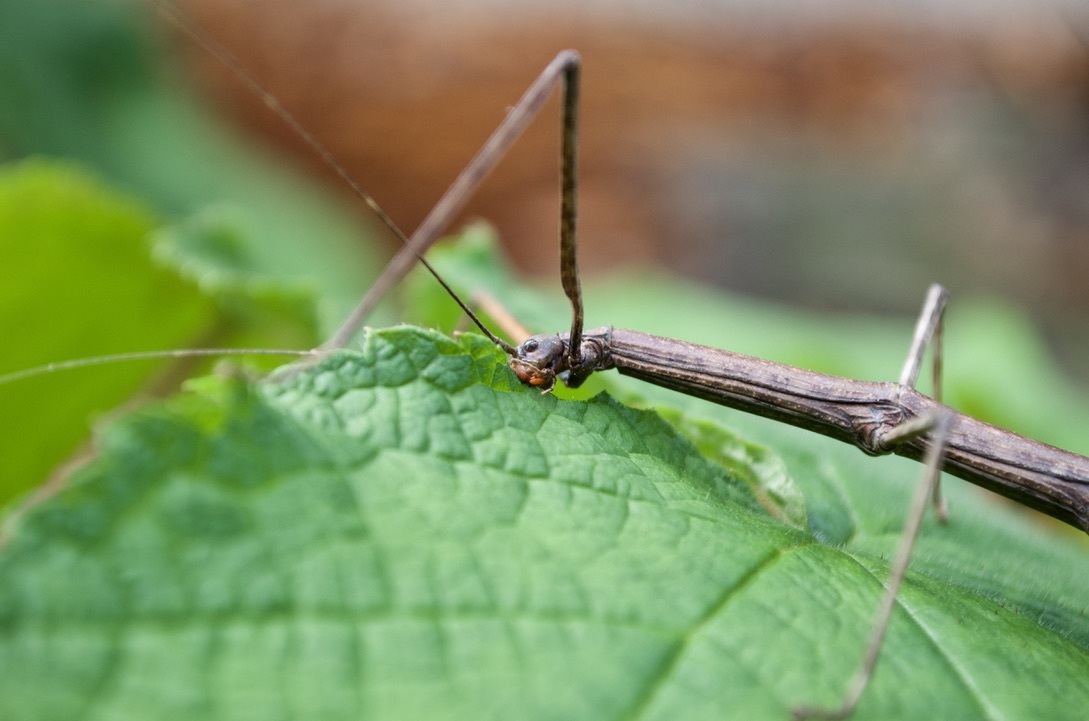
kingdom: Animalia
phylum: Arthropoda
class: Insecta
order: Phasmida
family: Diapheromeridae
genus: Diapheromera
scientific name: Diapheromera femorata
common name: Common american walkingstick
